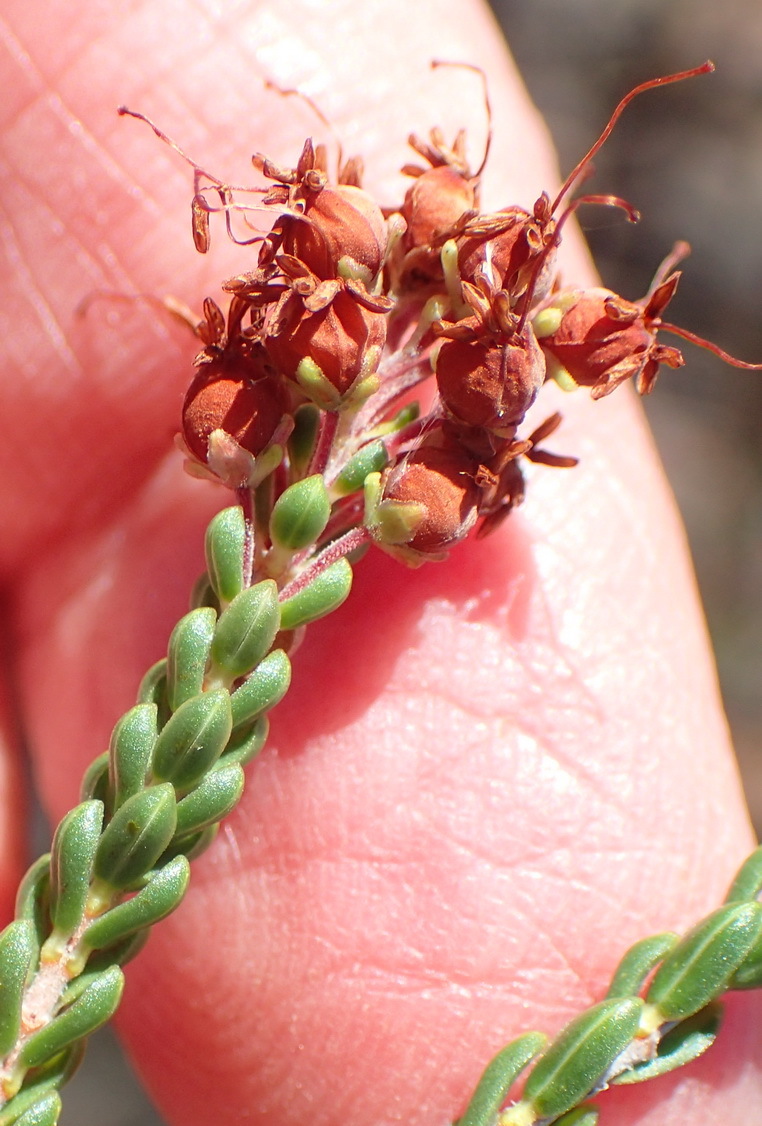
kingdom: Plantae
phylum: Tracheophyta
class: Magnoliopsida
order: Ericales
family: Ericaceae
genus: Erica
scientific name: Erica petraea
